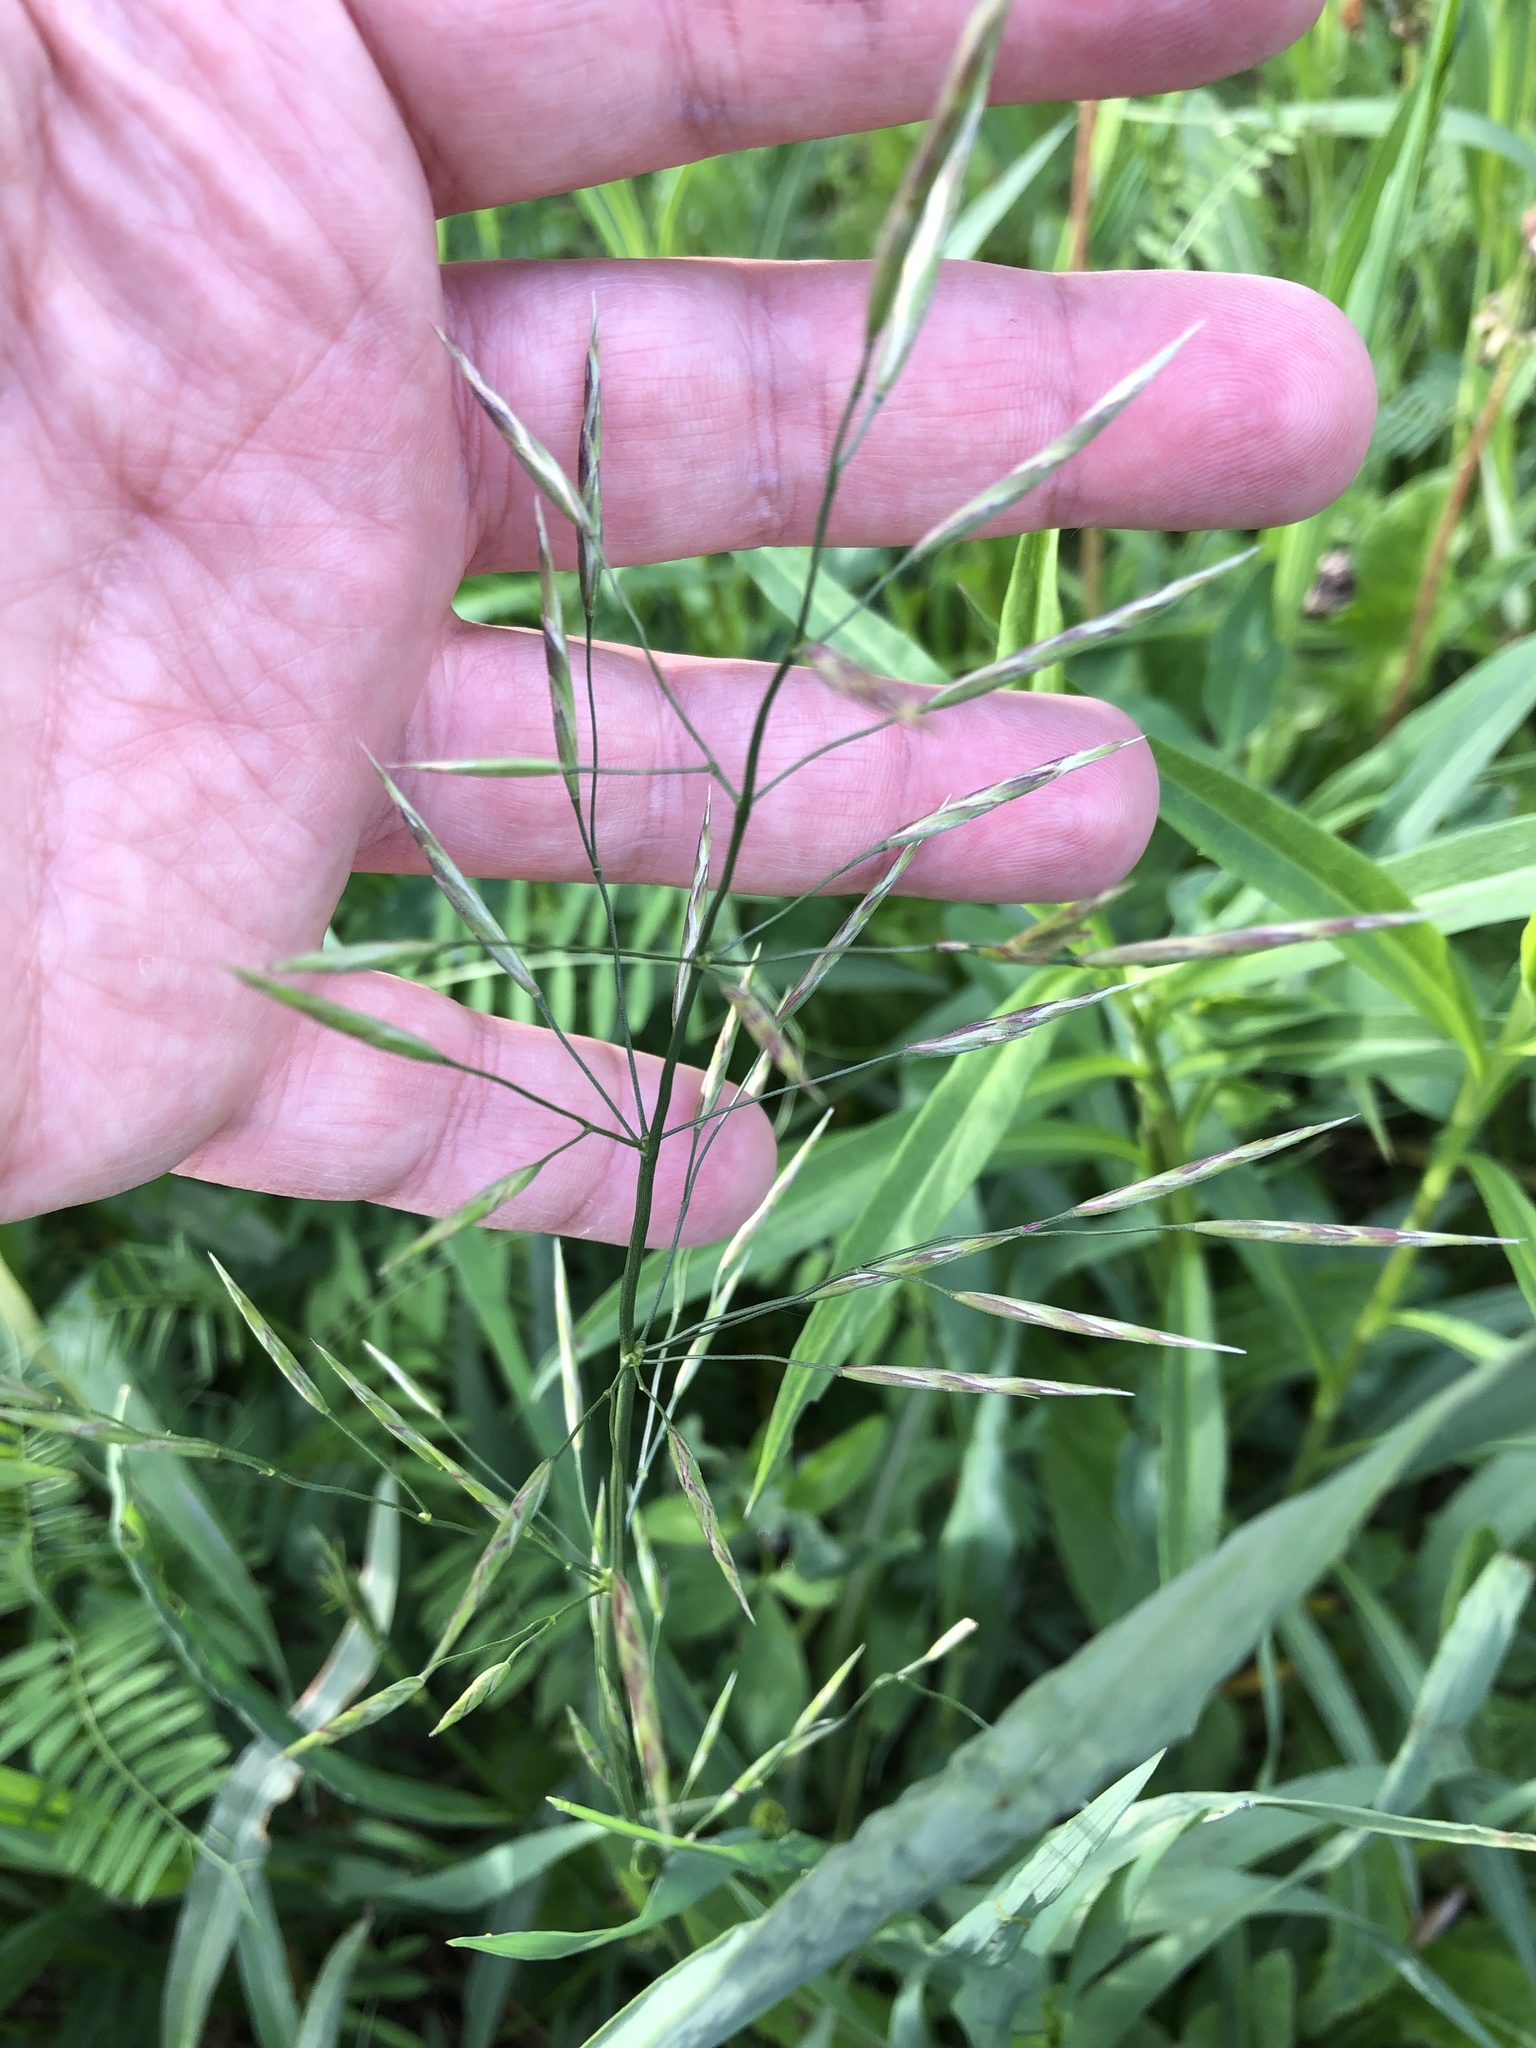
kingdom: Plantae
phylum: Tracheophyta
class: Liliopsida
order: Poales
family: Poaceae
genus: Bromus
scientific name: Bromus inermis
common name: Smooth brome
